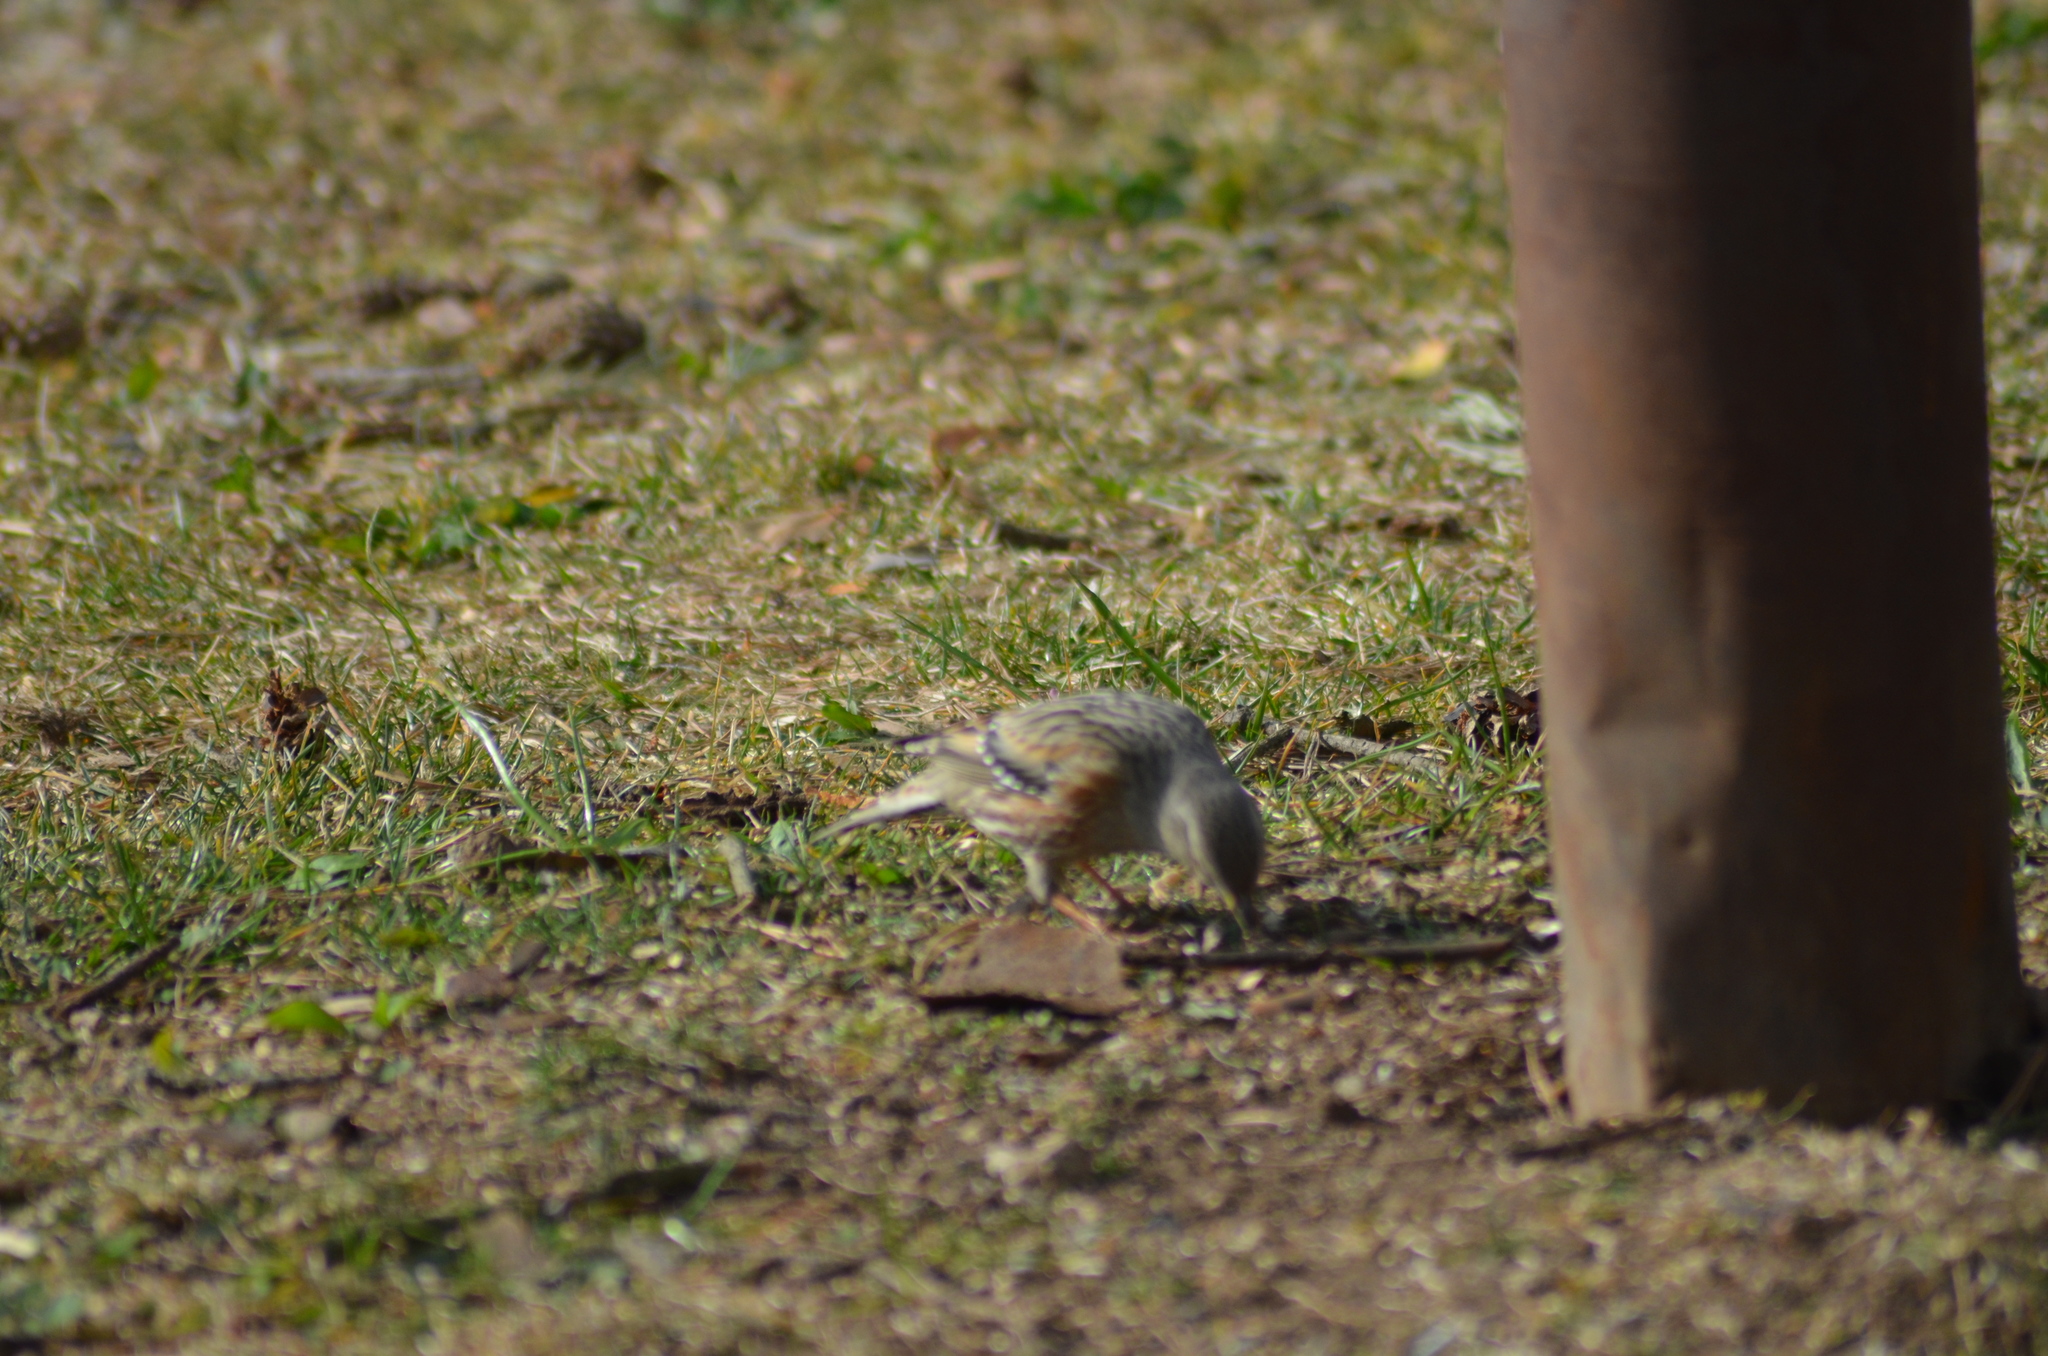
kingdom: Animalia
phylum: Chordata
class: Aves
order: Passeriformes
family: Prunellidae
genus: Prunella
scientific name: Prunella collaris
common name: Alpine accentor
